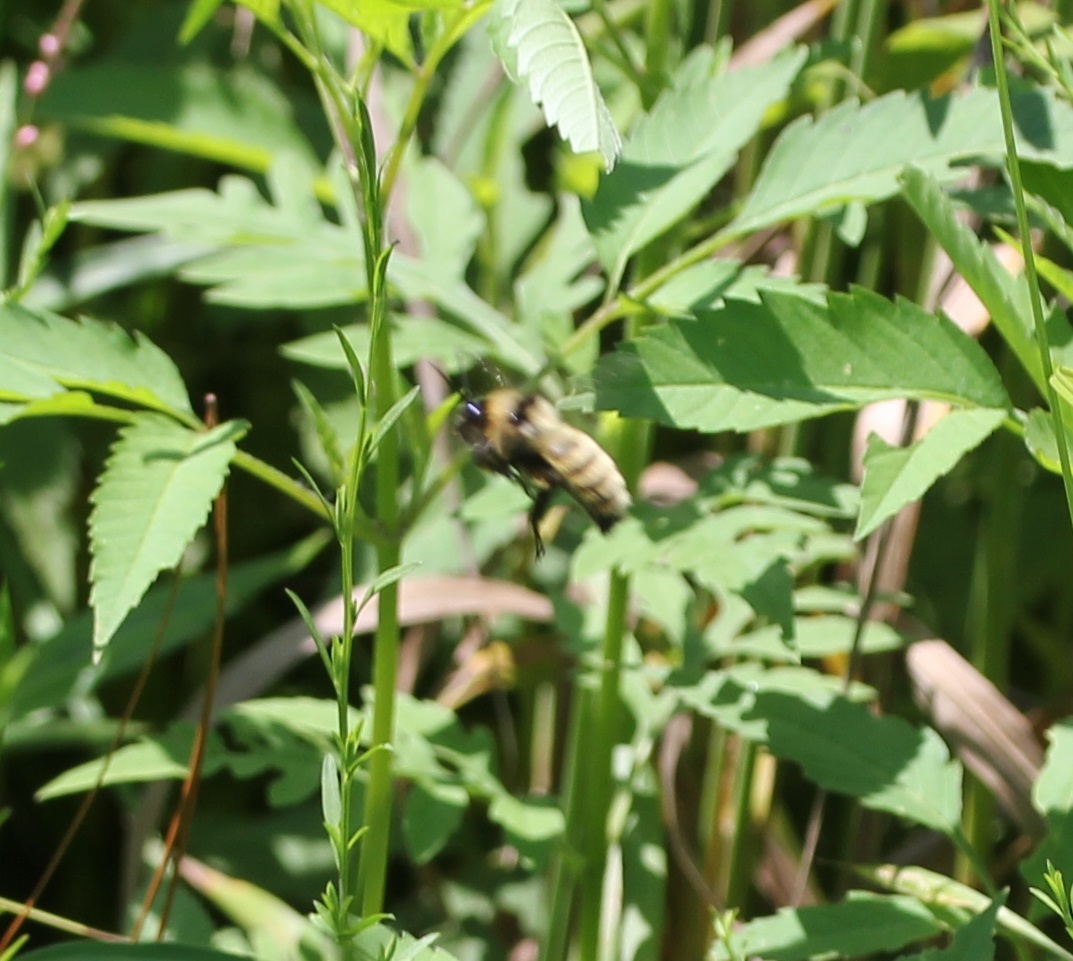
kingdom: Animalia
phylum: Arthropoda
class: Insecta
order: Hymenoptera
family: Apidae
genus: Bombus
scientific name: Bombus fervidus
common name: Yellow bumble bee
